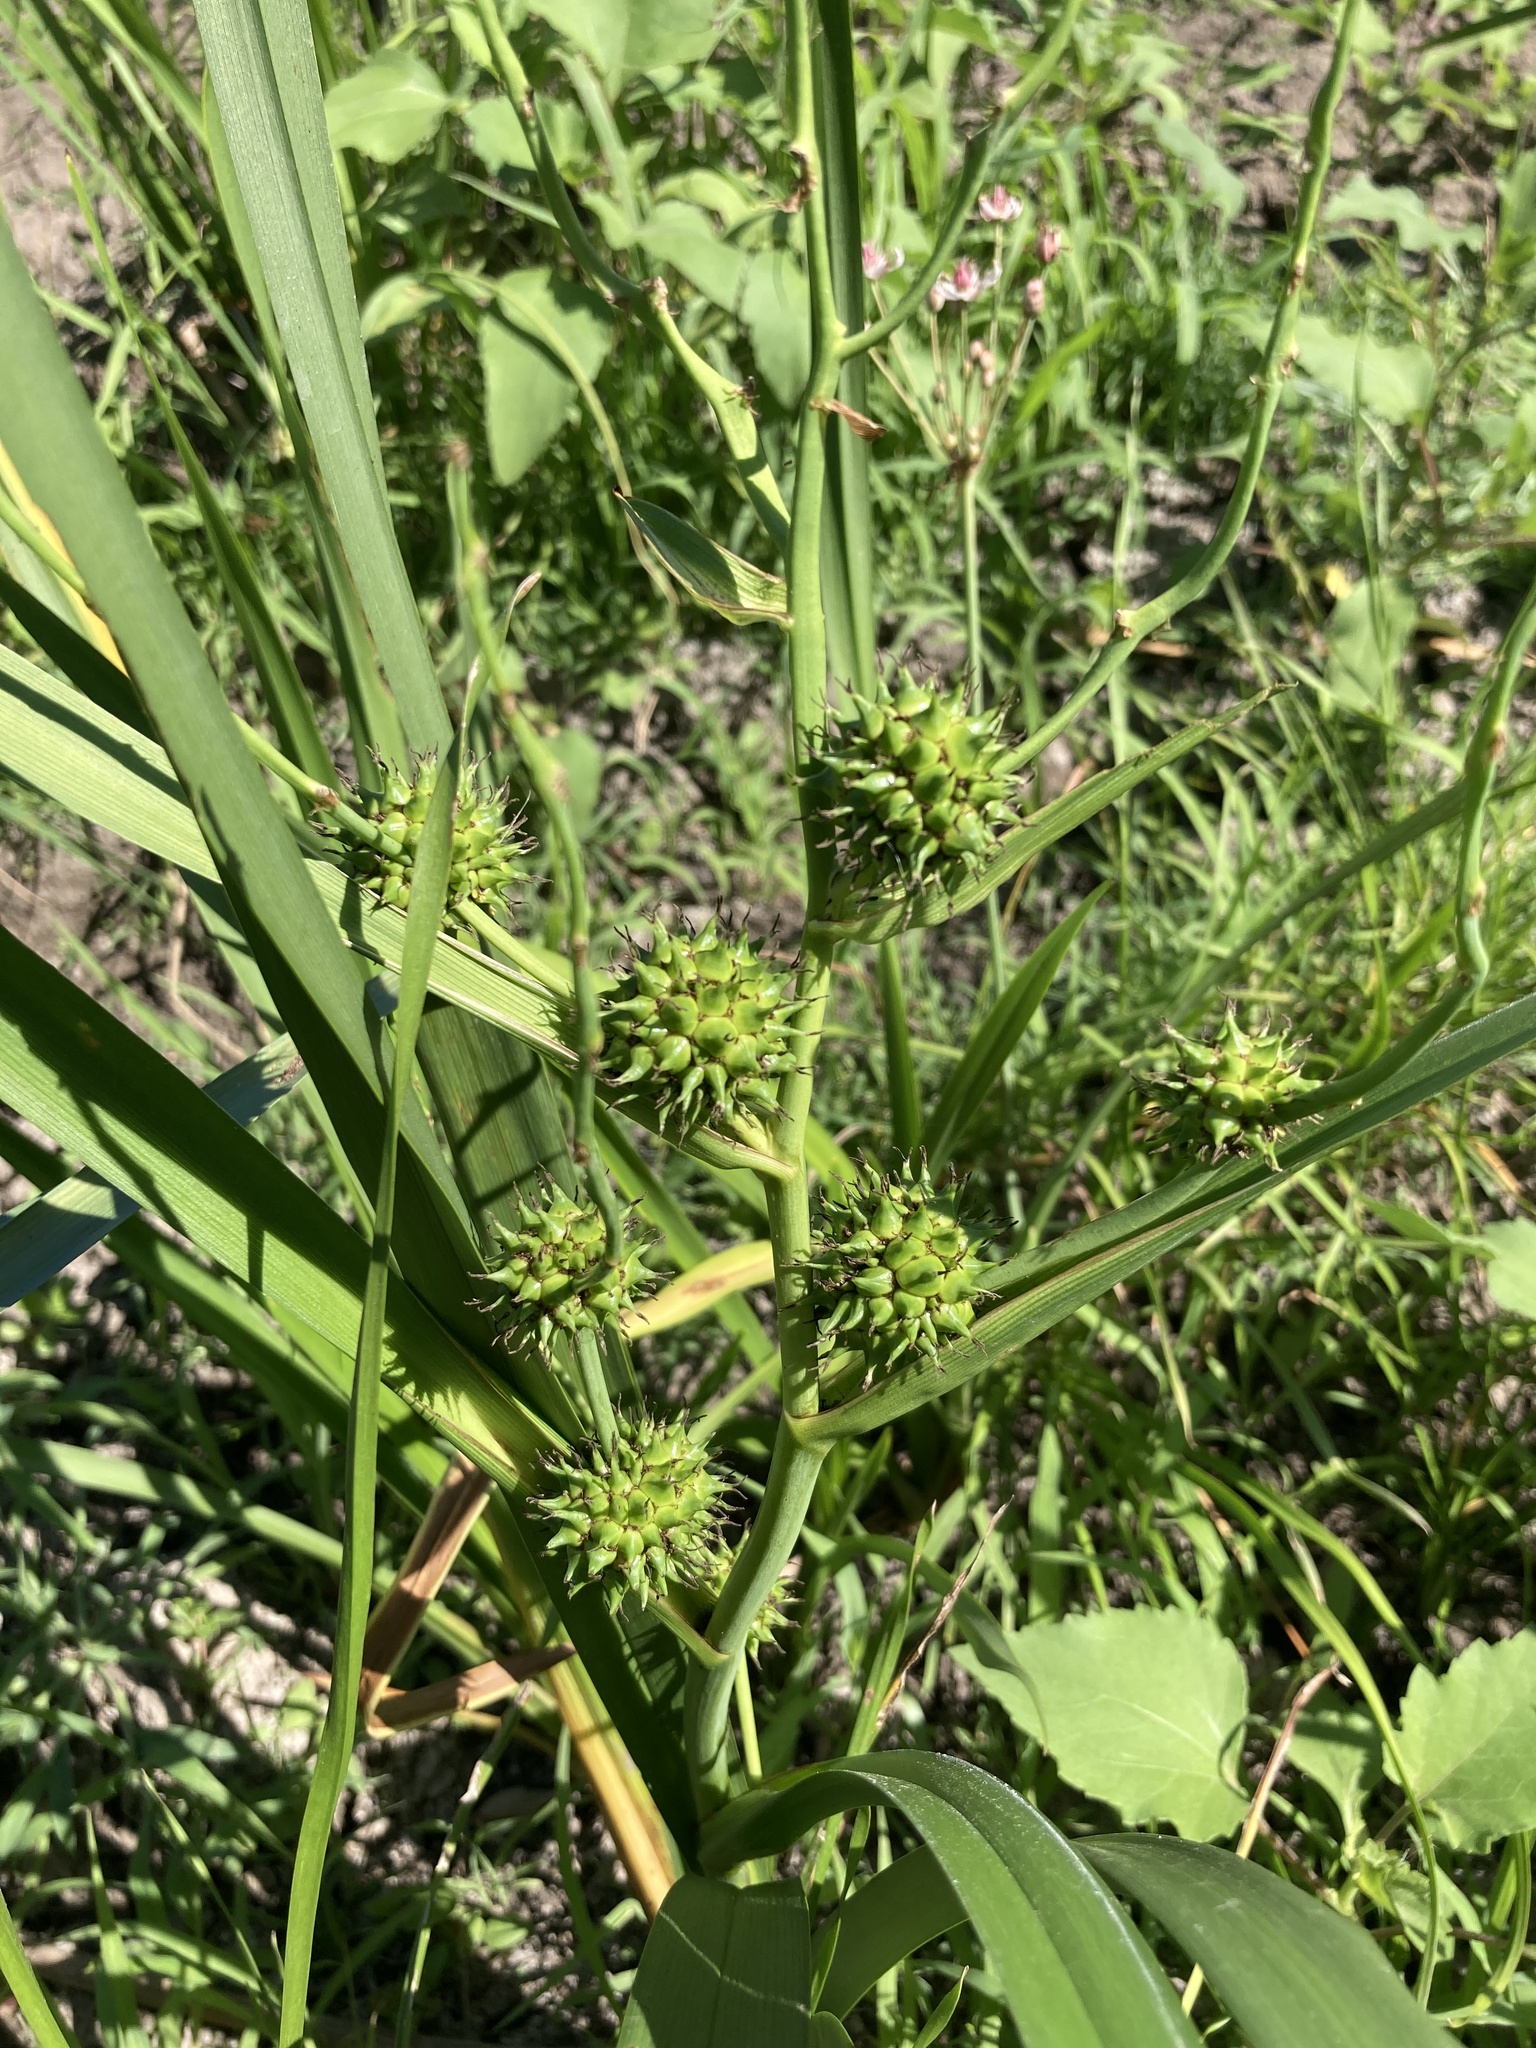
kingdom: Plantae
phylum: Tracheophyta
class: Liliopsida
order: Poales
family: Typhaceae
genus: Sparganium
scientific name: Sparganium erectum
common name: Branched bur-reed
